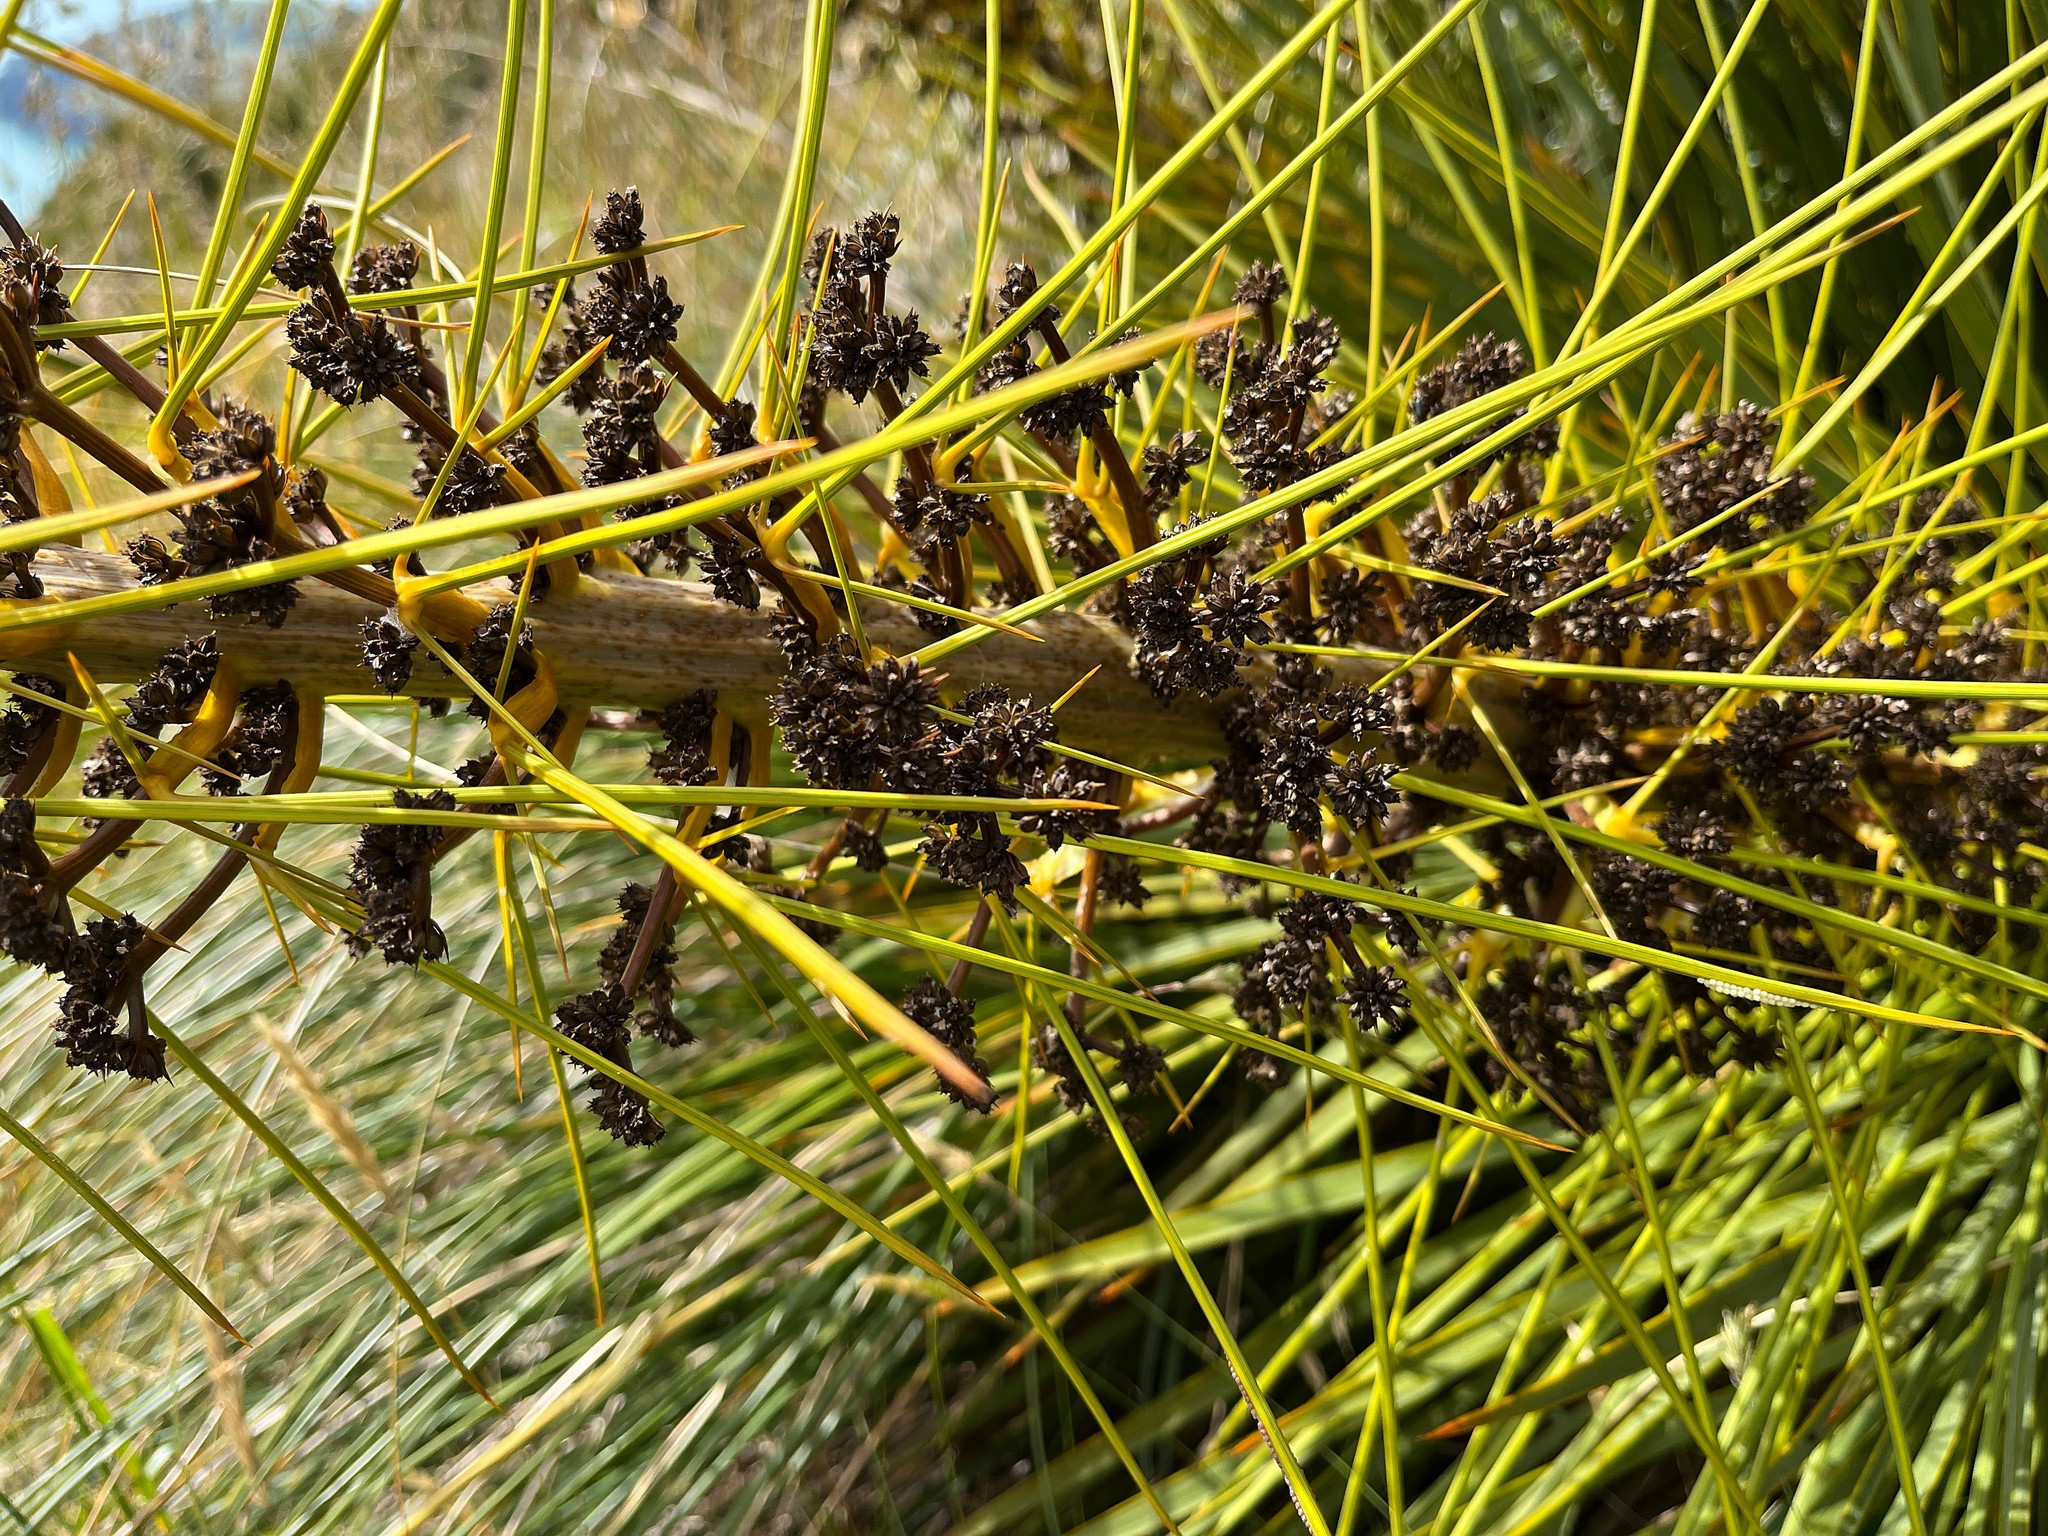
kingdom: Plantae
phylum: Tracheophyta
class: Magnoliopsida
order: Apiales
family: Apiaceae
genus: Aciphylla
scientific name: Aciphylla aurea
